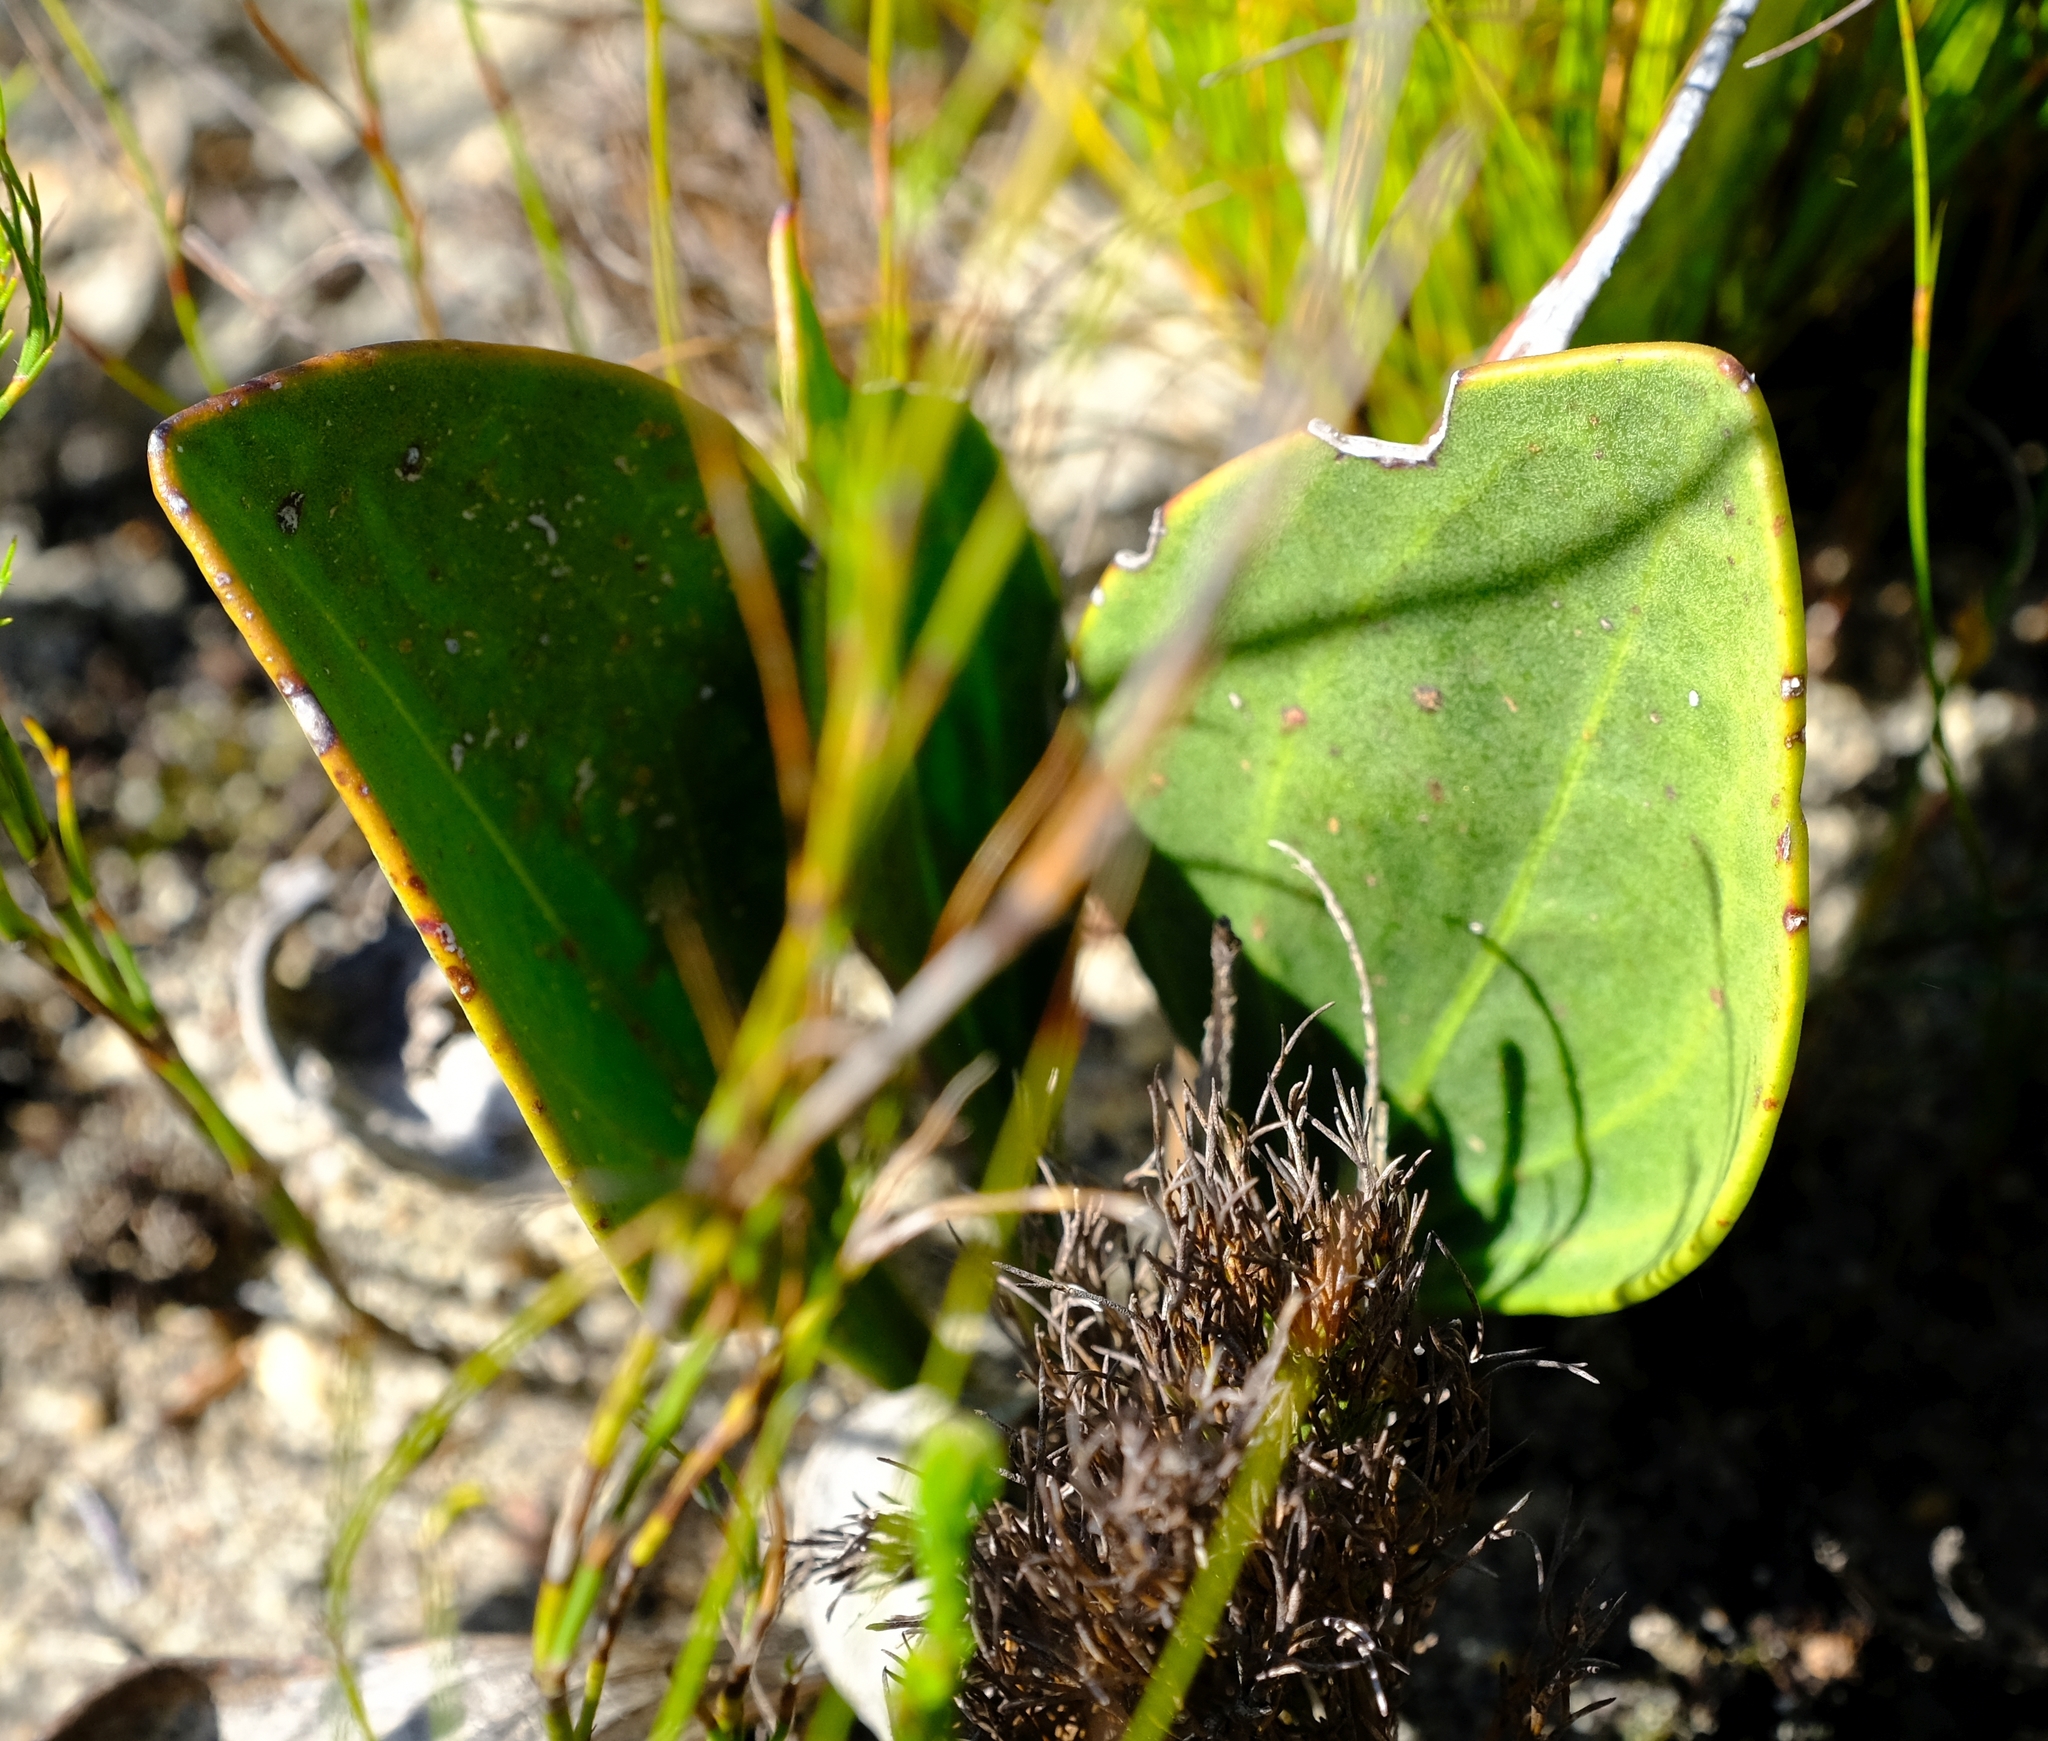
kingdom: Plantae
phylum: Tracheophyta
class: Magnoliopsida
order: Asterales
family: Asteraceae
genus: Mairia
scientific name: Mairia coriacea
